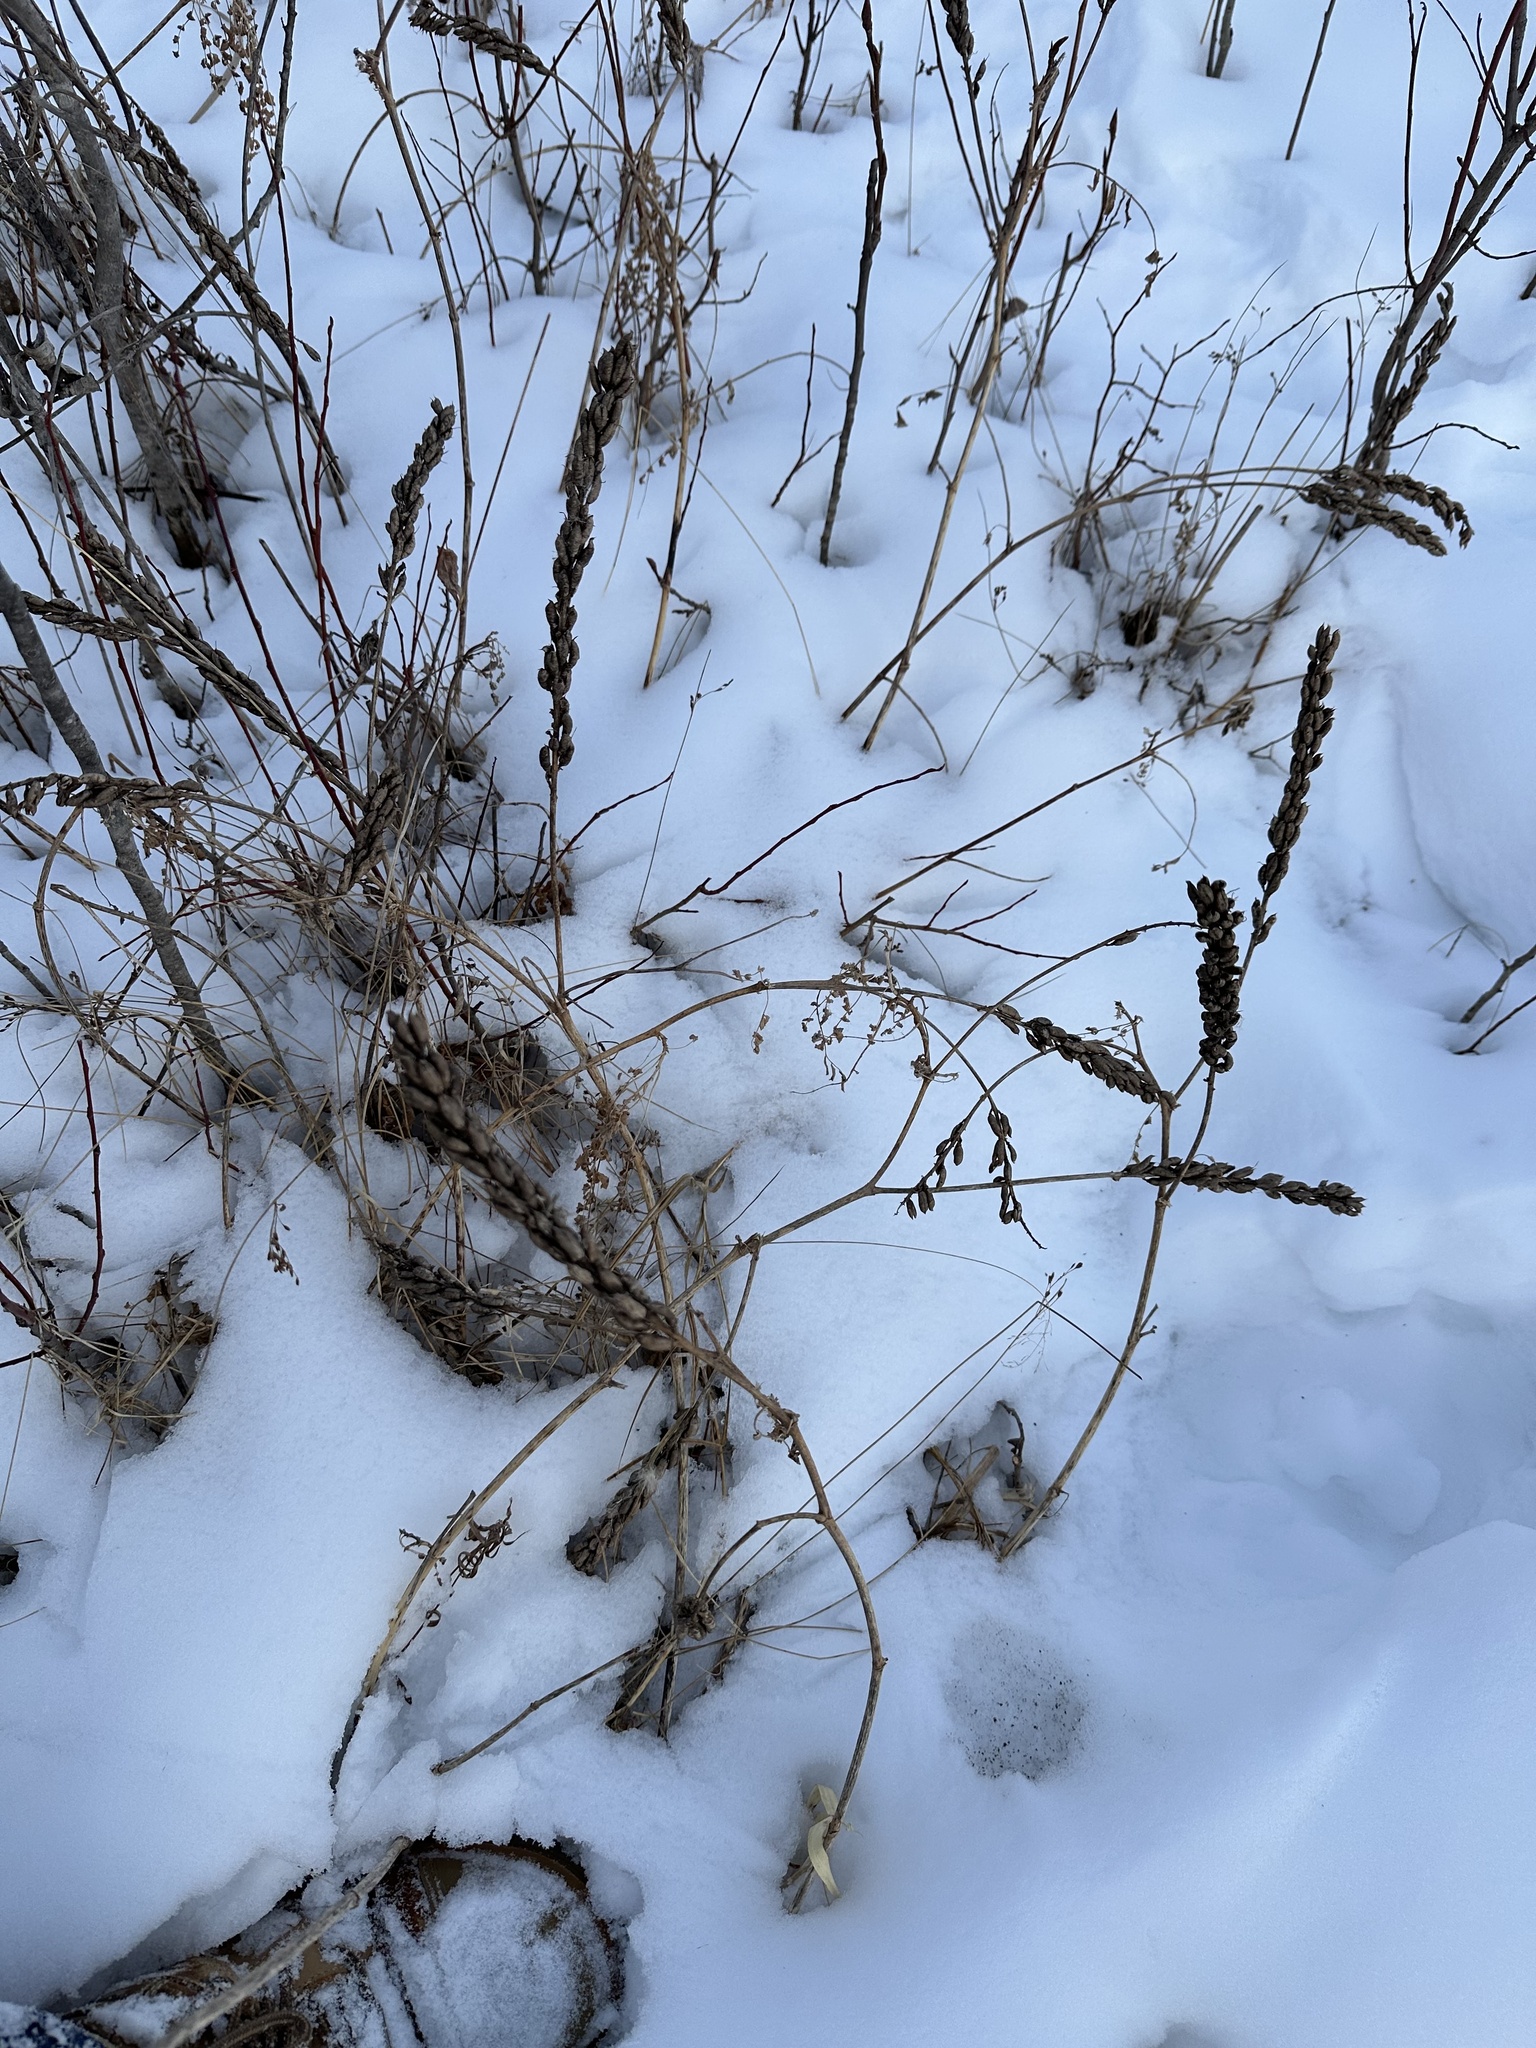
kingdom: Plantae
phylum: Tracheophyta
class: Magnoliopsida
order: Fabales
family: Fabaceae
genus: Astragalus
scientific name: Astragalus canadensis
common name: Canada milk-vetch
